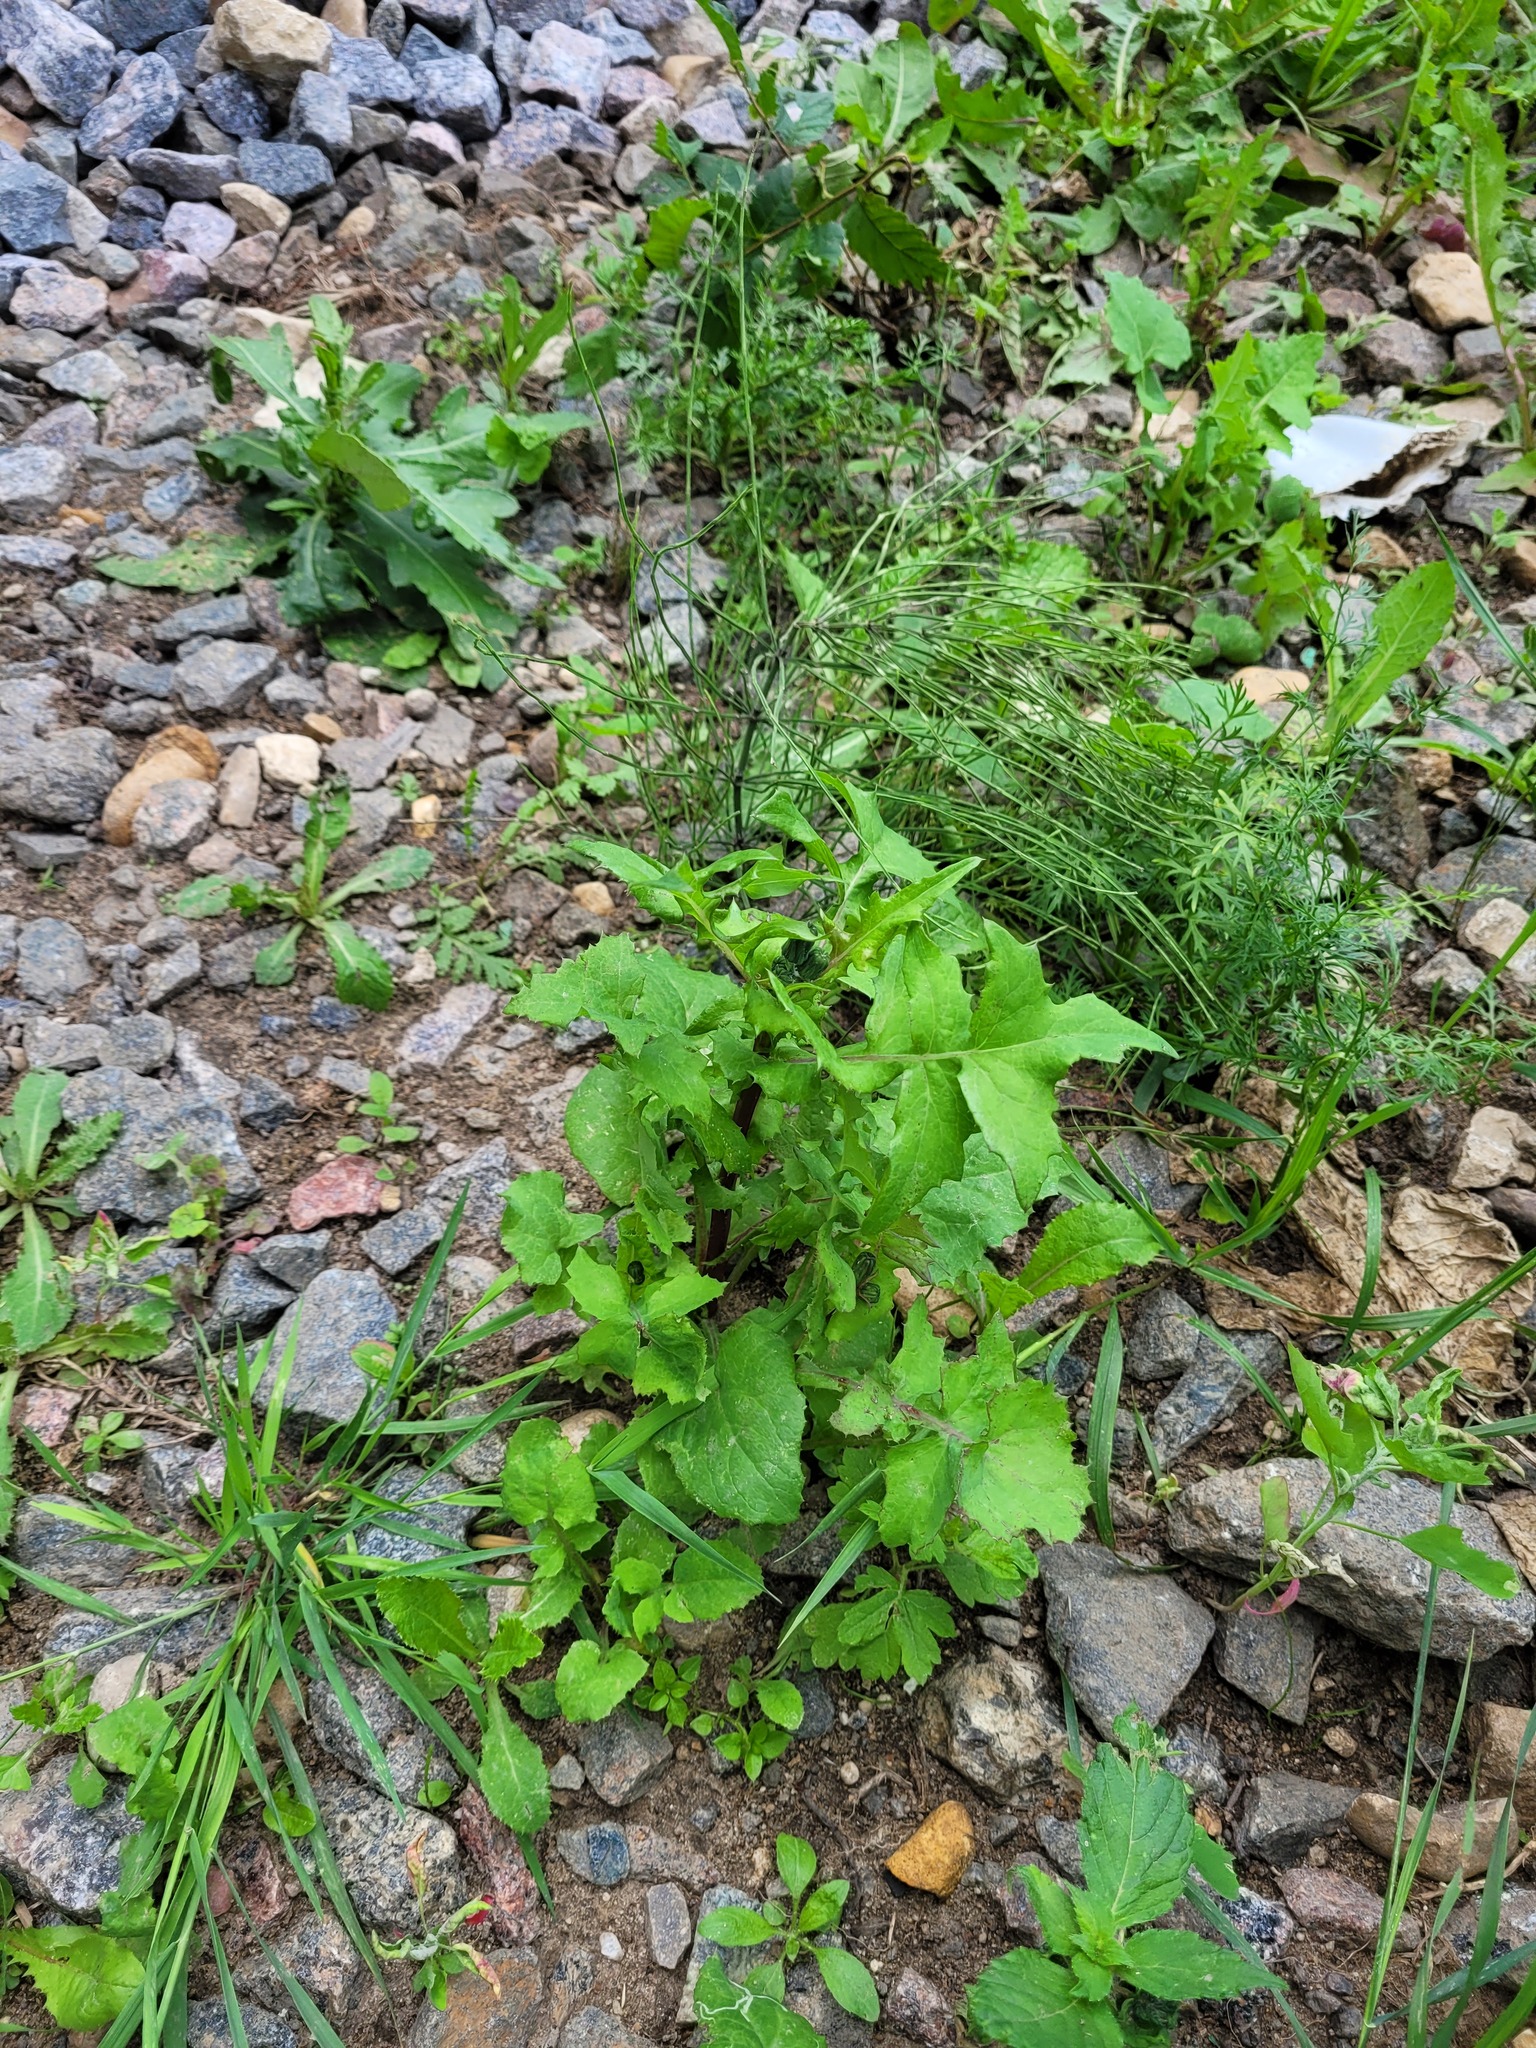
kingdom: Plantae
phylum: Tracheophyta
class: Magnoliopsida
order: Asterales
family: Asteraceae
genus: Sonchus
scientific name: Sonchus oleraceus
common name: Common sowthistle
